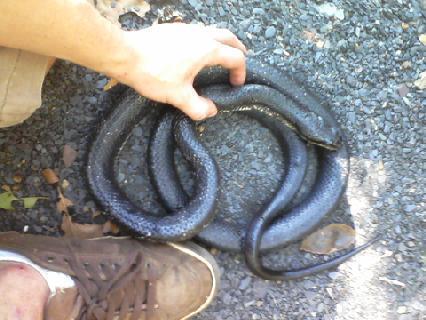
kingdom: Animalia
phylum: Chordata
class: Squamata
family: Colubridae
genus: Pantherophis
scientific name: Pantherophis obsoletus
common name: Black rat snake
